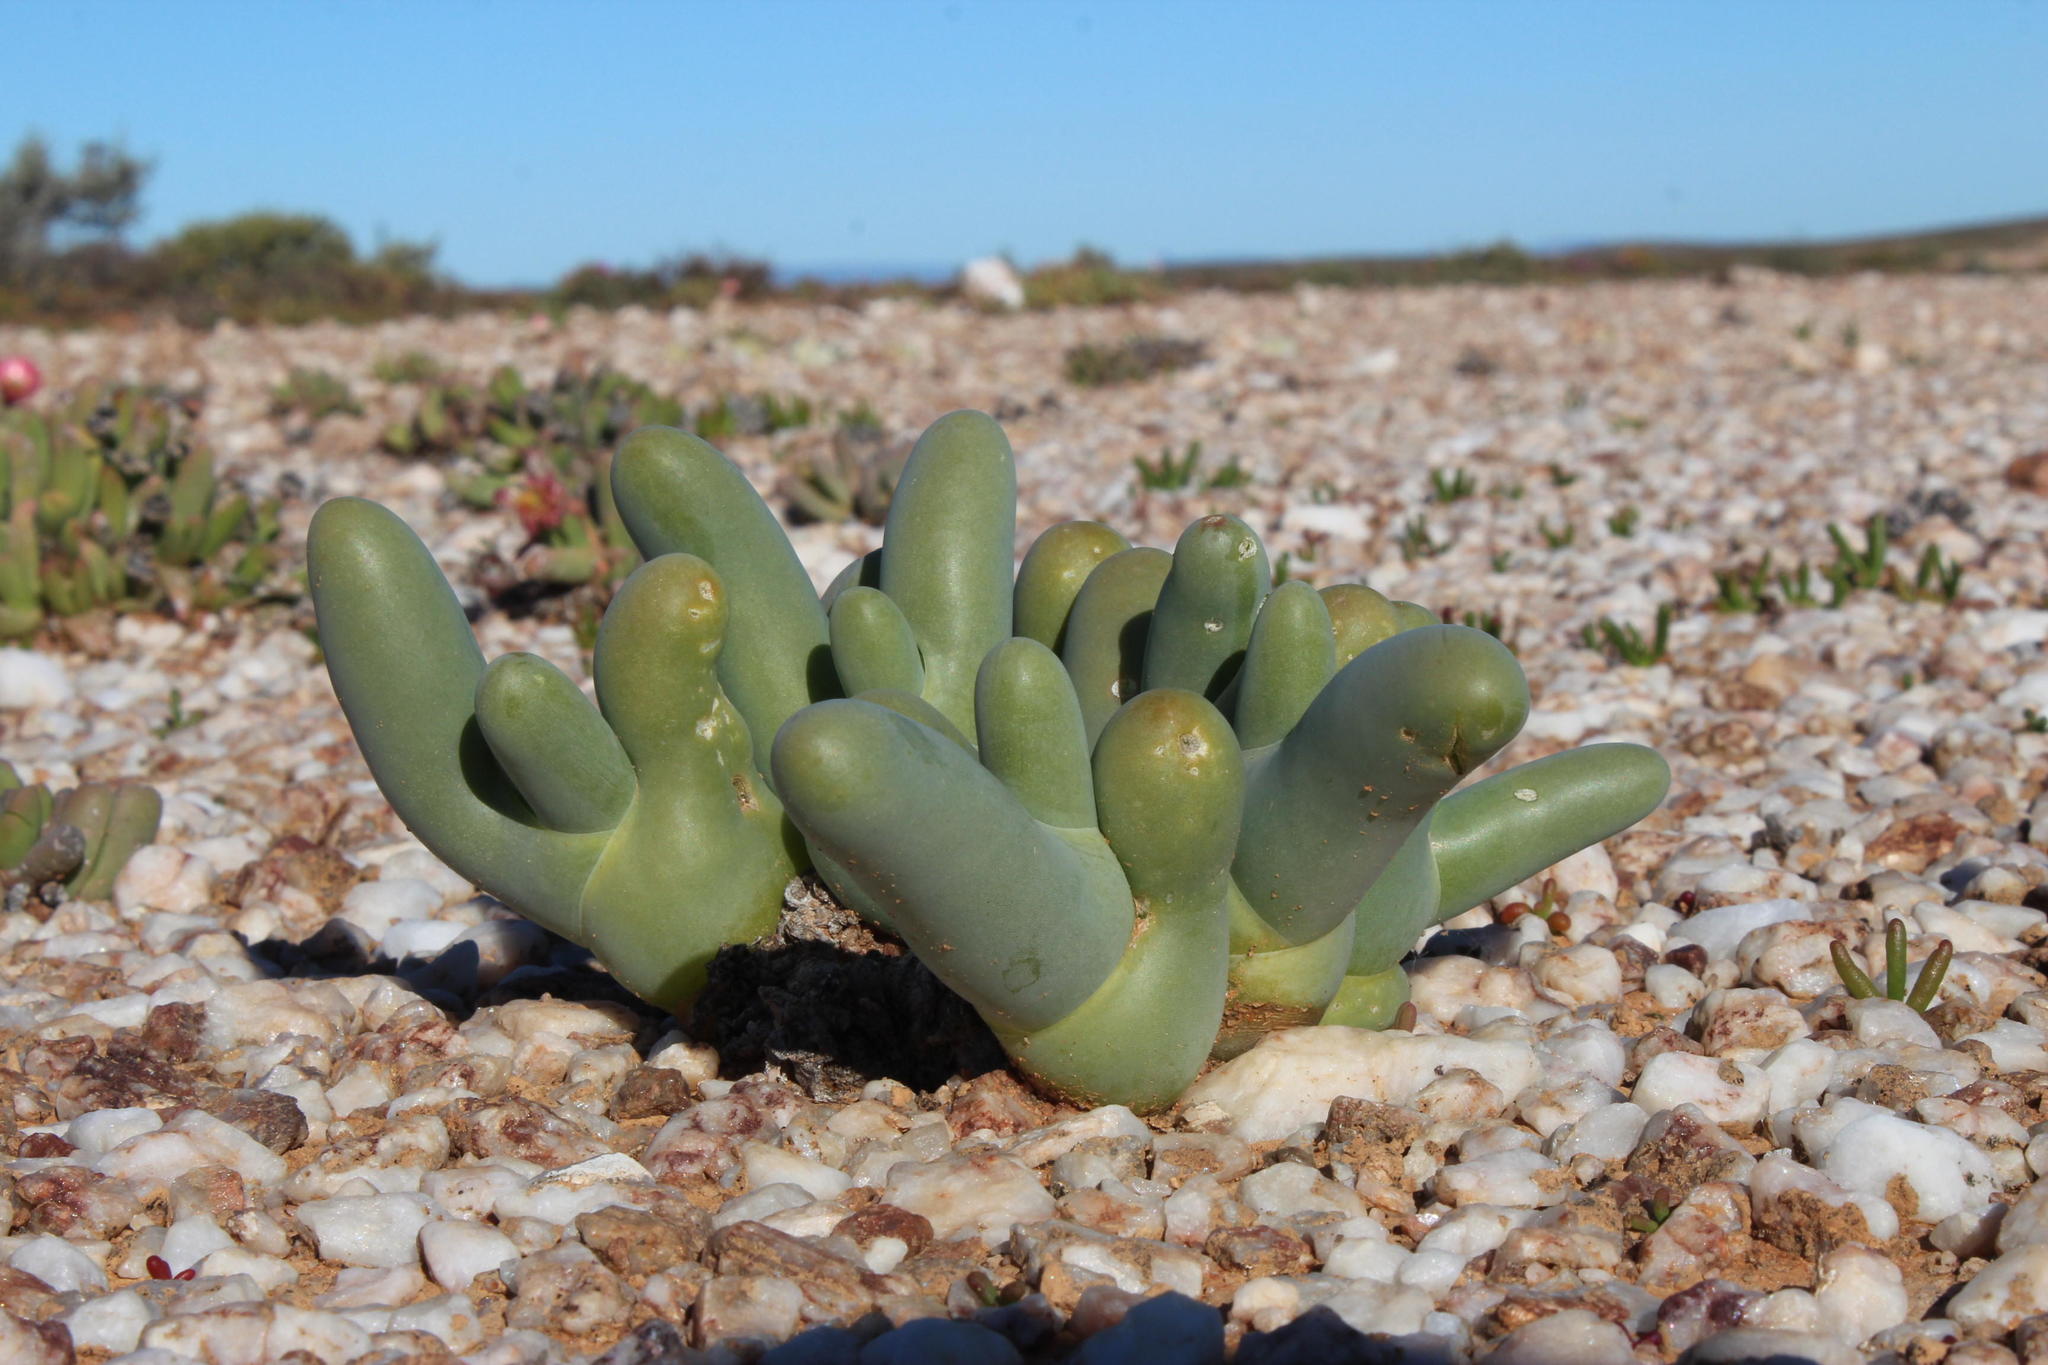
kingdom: Plantae
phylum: Tracheophyta
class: Magnoliopsida
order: Caryophyllales
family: Aizoaceae
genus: Mesembryanthemum
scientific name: Mesembryanthemum digitatum
